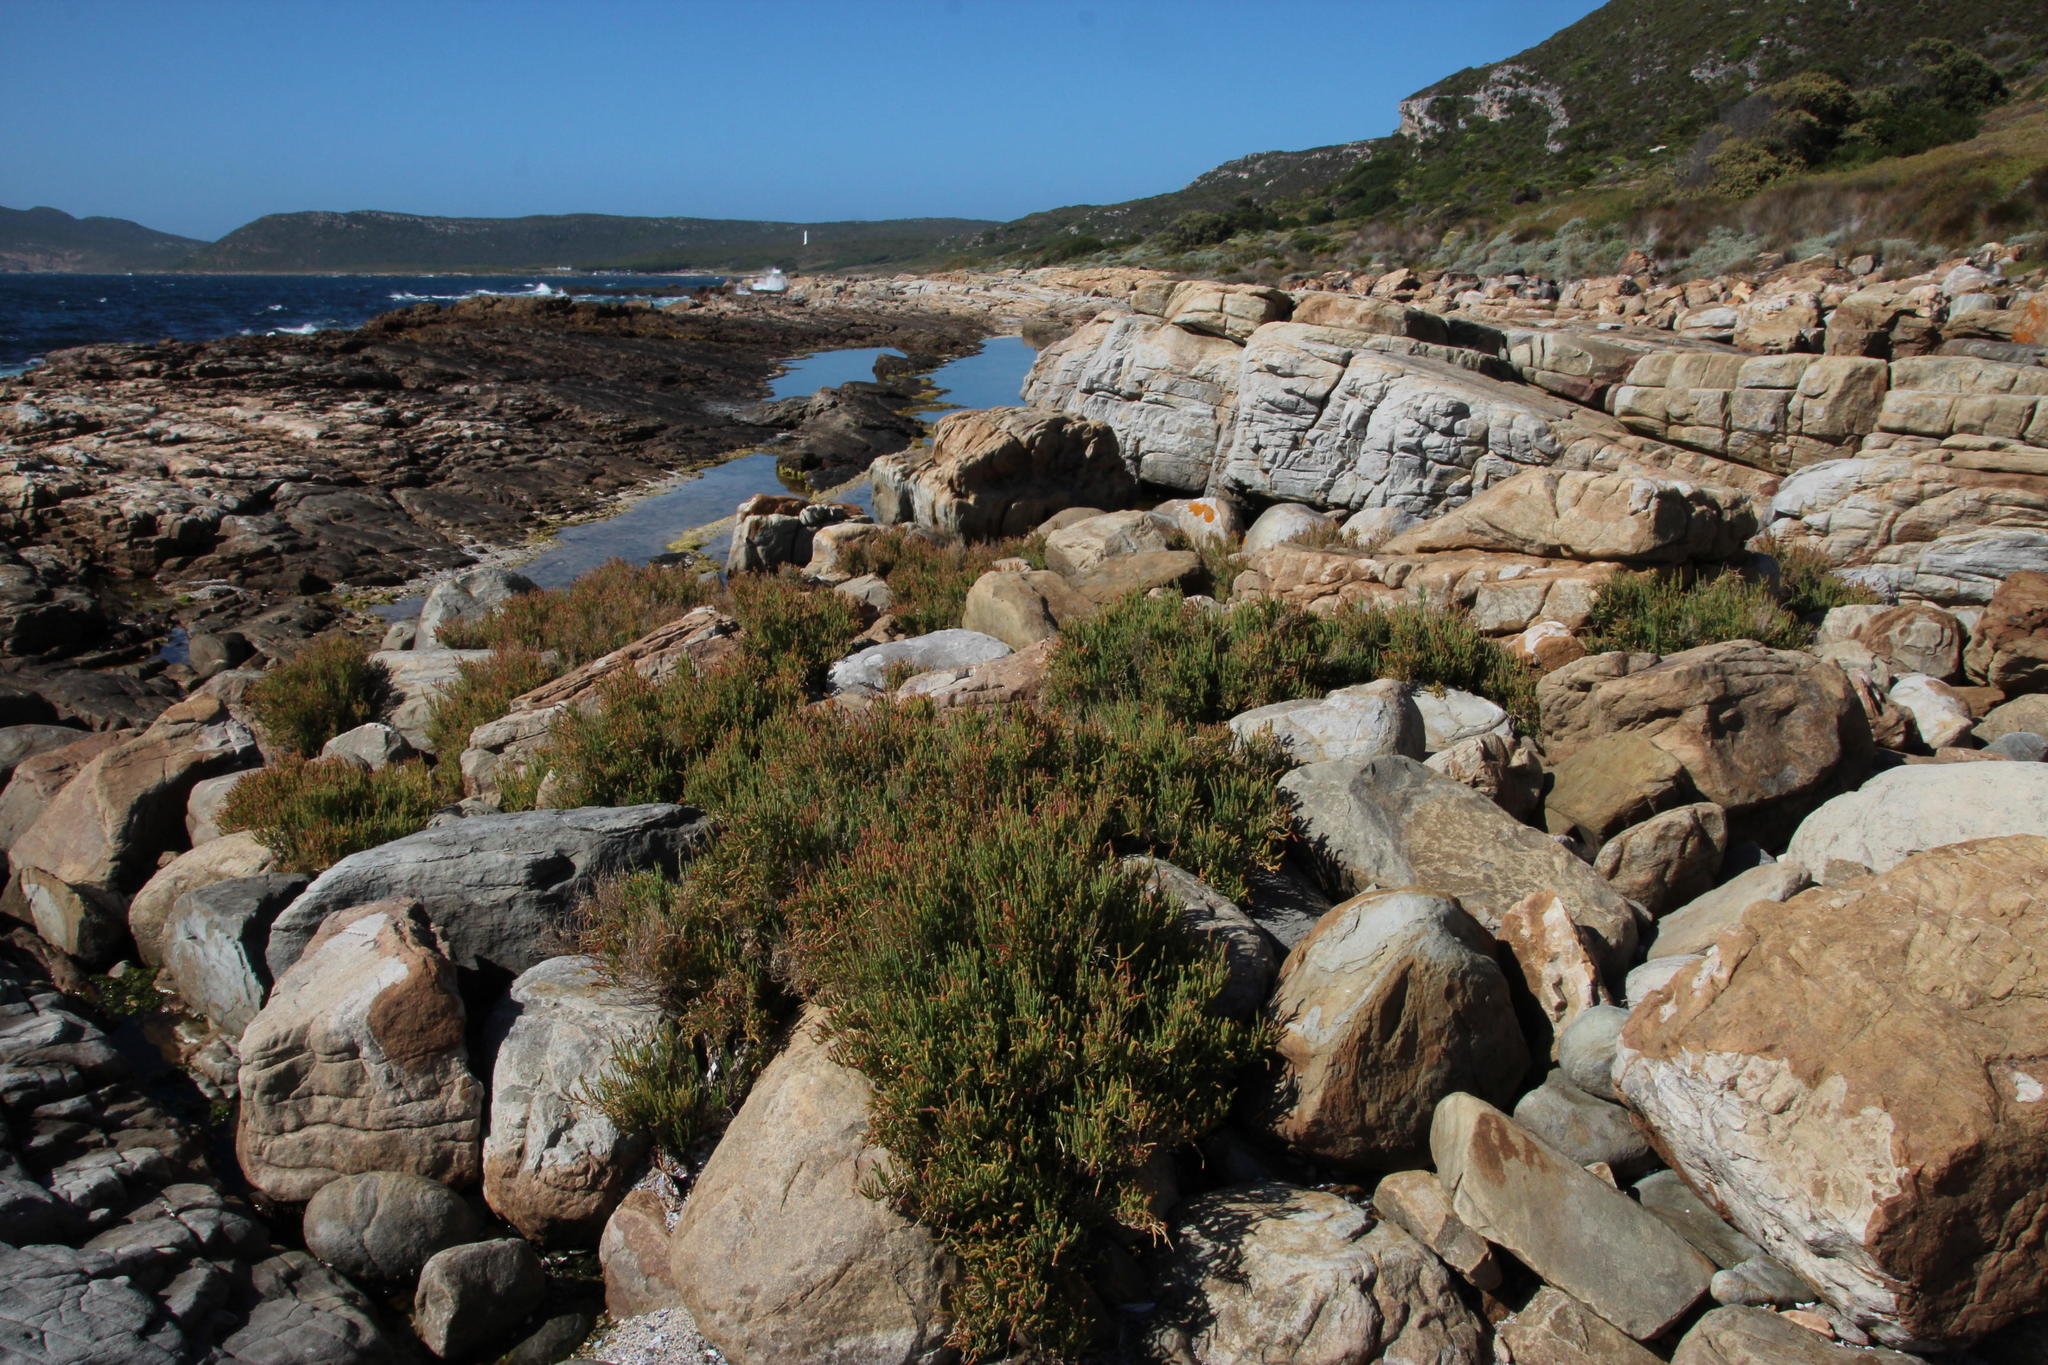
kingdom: Plantae
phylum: Tracheophyta
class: Magnoliopsida
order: Caryophyllales
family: Amaranthaceae
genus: Salicornia
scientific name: Salicornia littorea
